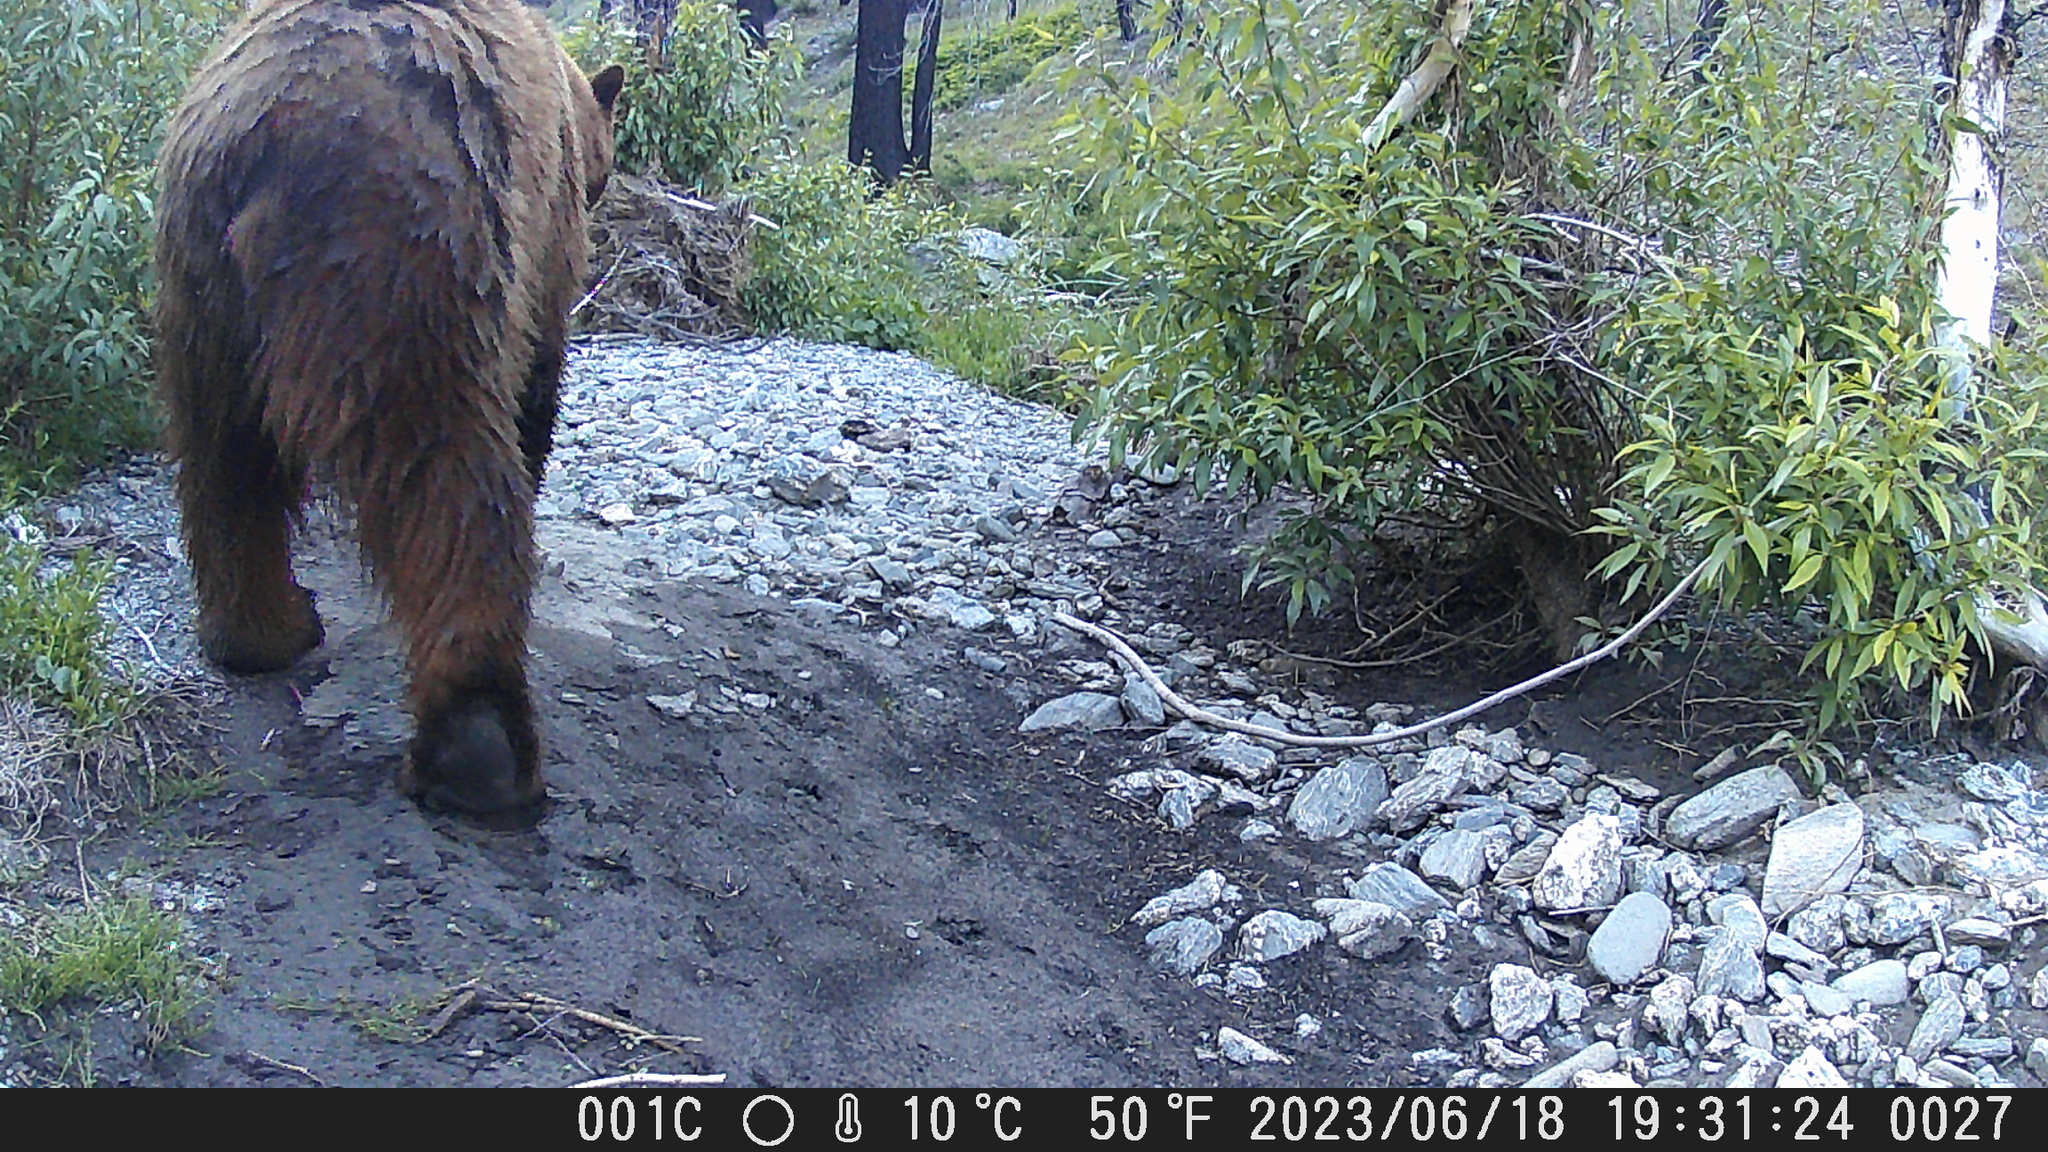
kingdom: Animalia
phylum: Chordata
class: Mammalia
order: Carnivora
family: Ursidae
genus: Ursus
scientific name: Ursus americanus
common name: American black bear
